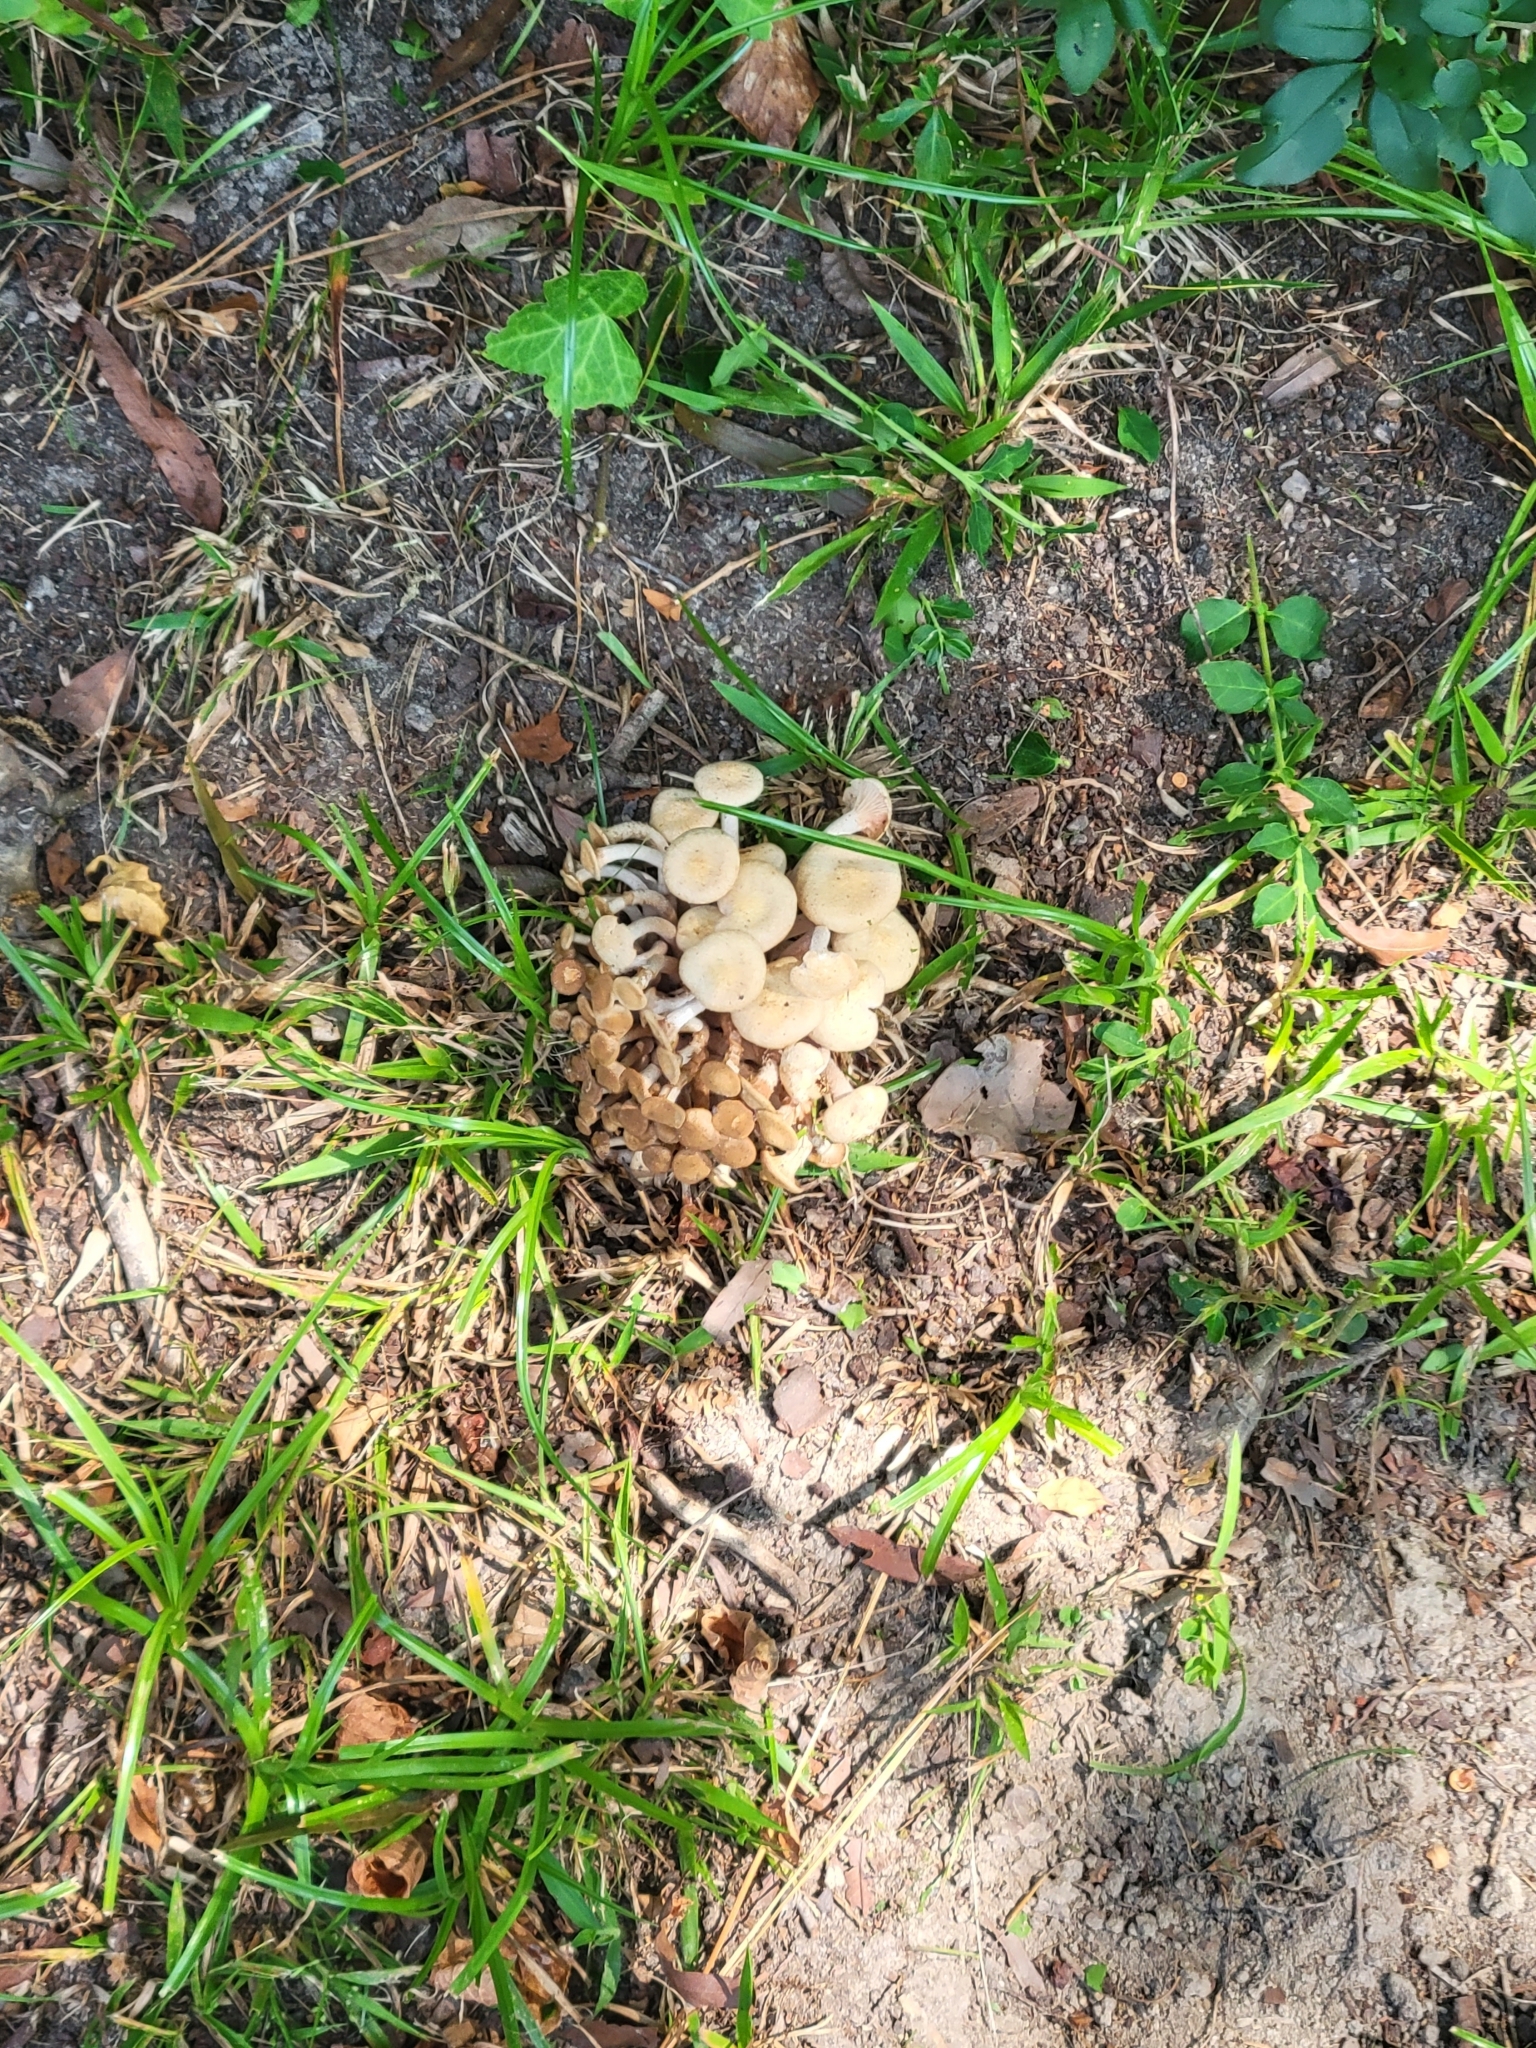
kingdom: Fungi
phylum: Basidiomycota
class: Agaricomycetes
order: Agaricales
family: Physalacriaceae
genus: Desarmillaria
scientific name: Desarmillaria caespitosa
